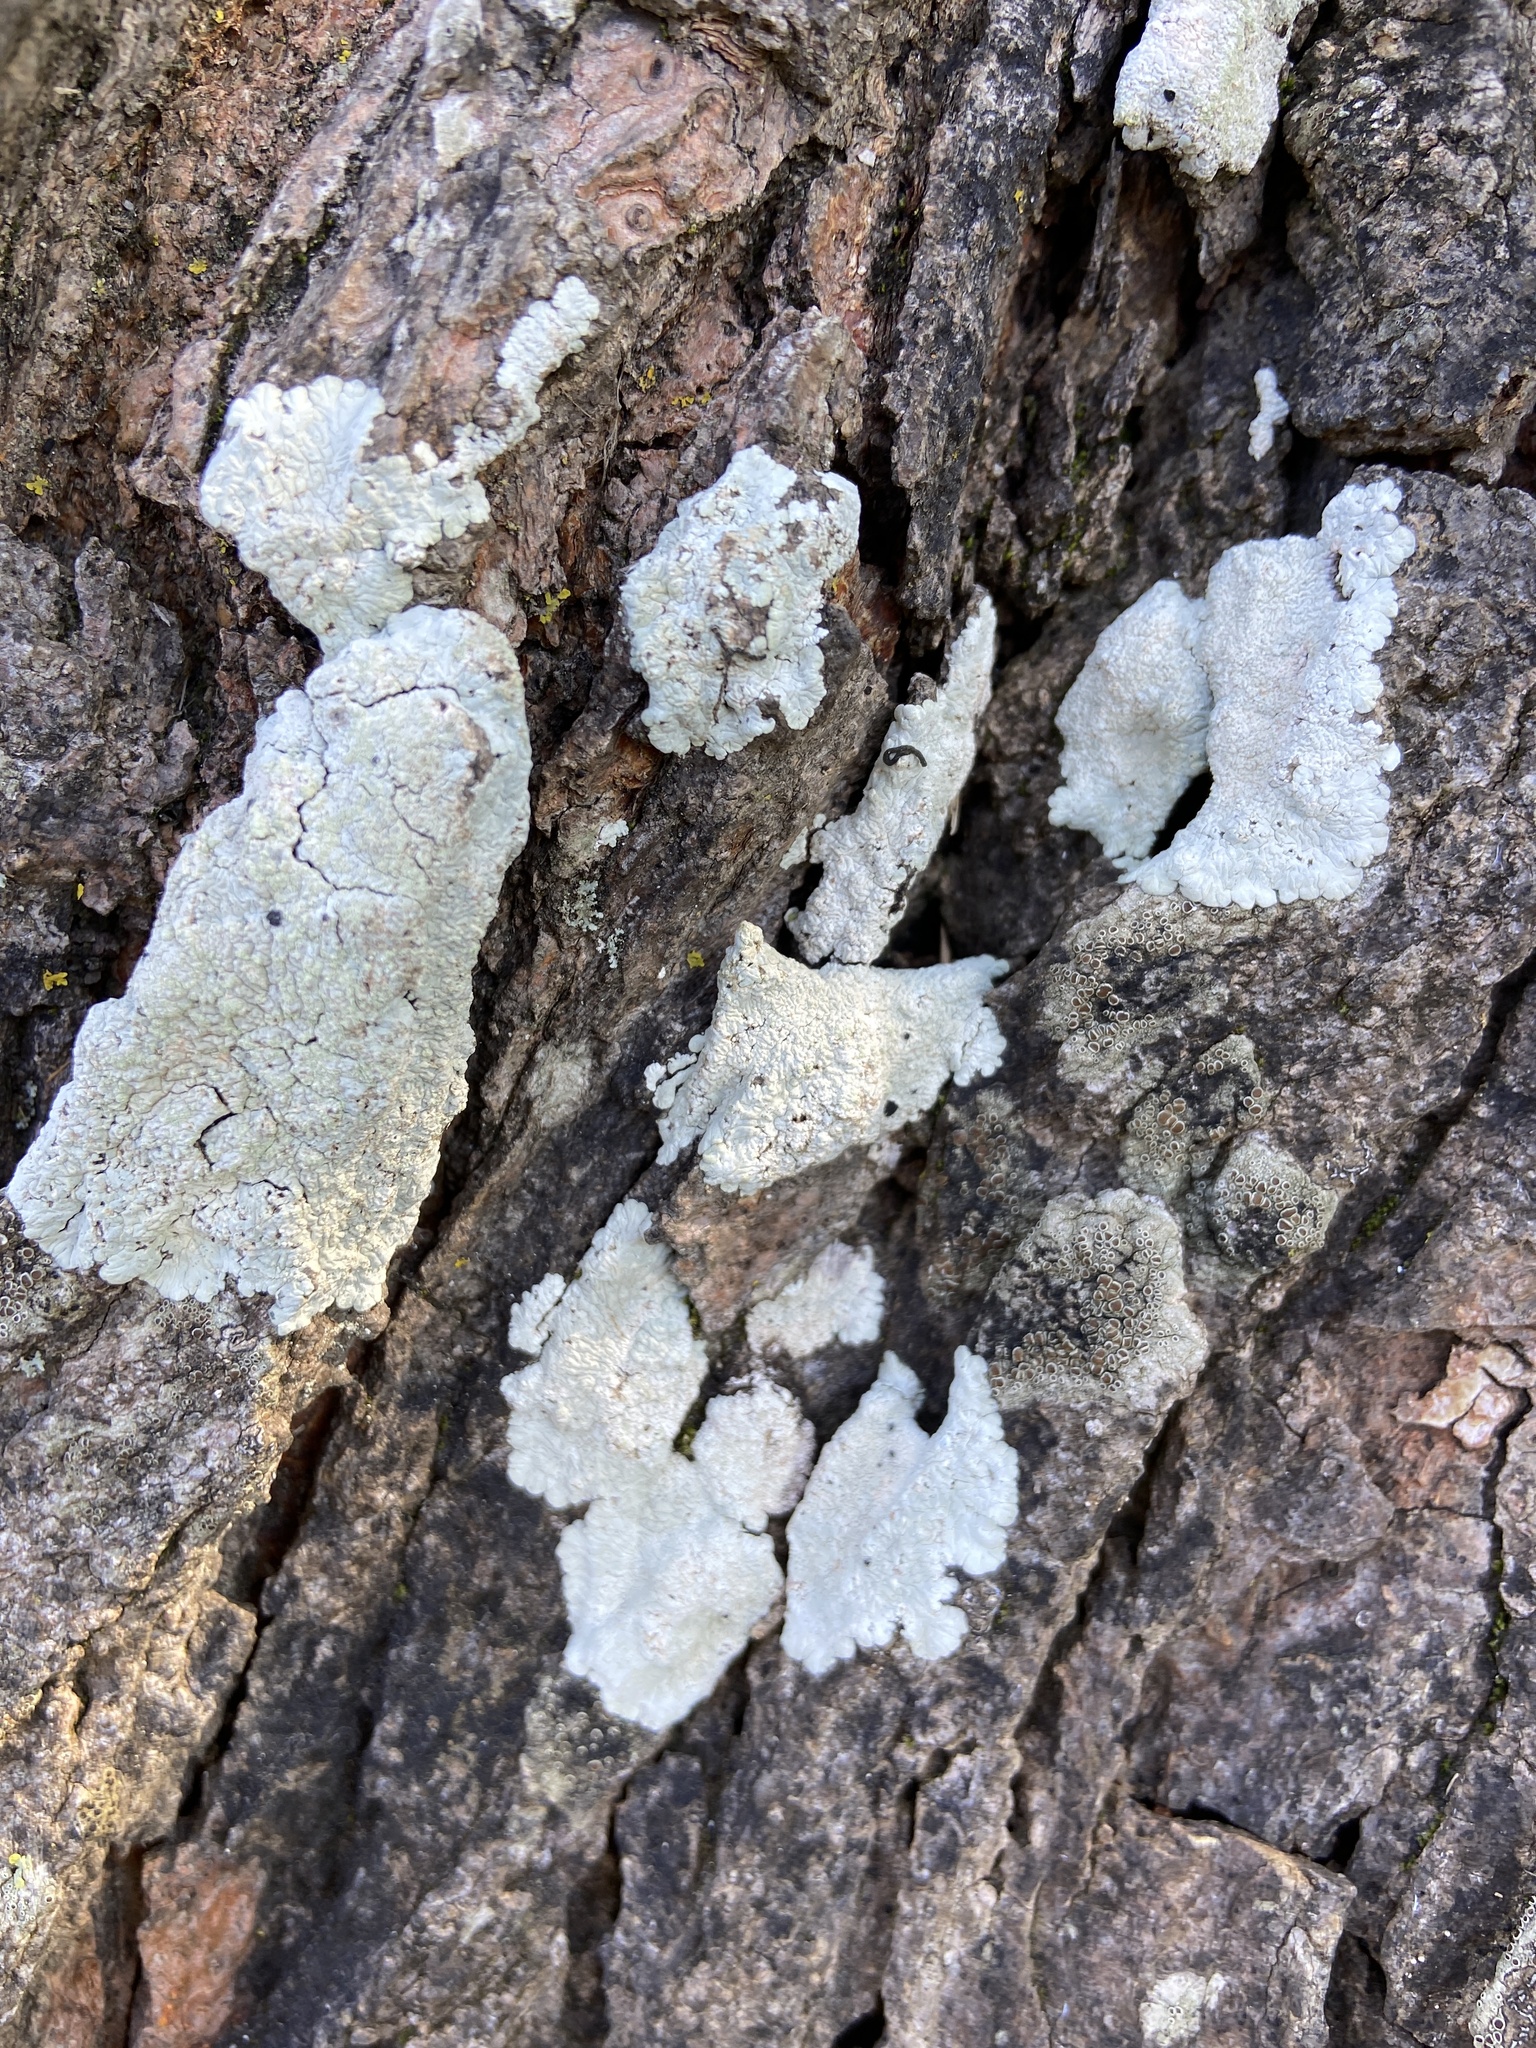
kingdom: Fungi
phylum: Ascomycota
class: Lecanoromycetes
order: Caliciales
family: Caliciaceae
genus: Diploicia
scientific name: Diploicia canescens
